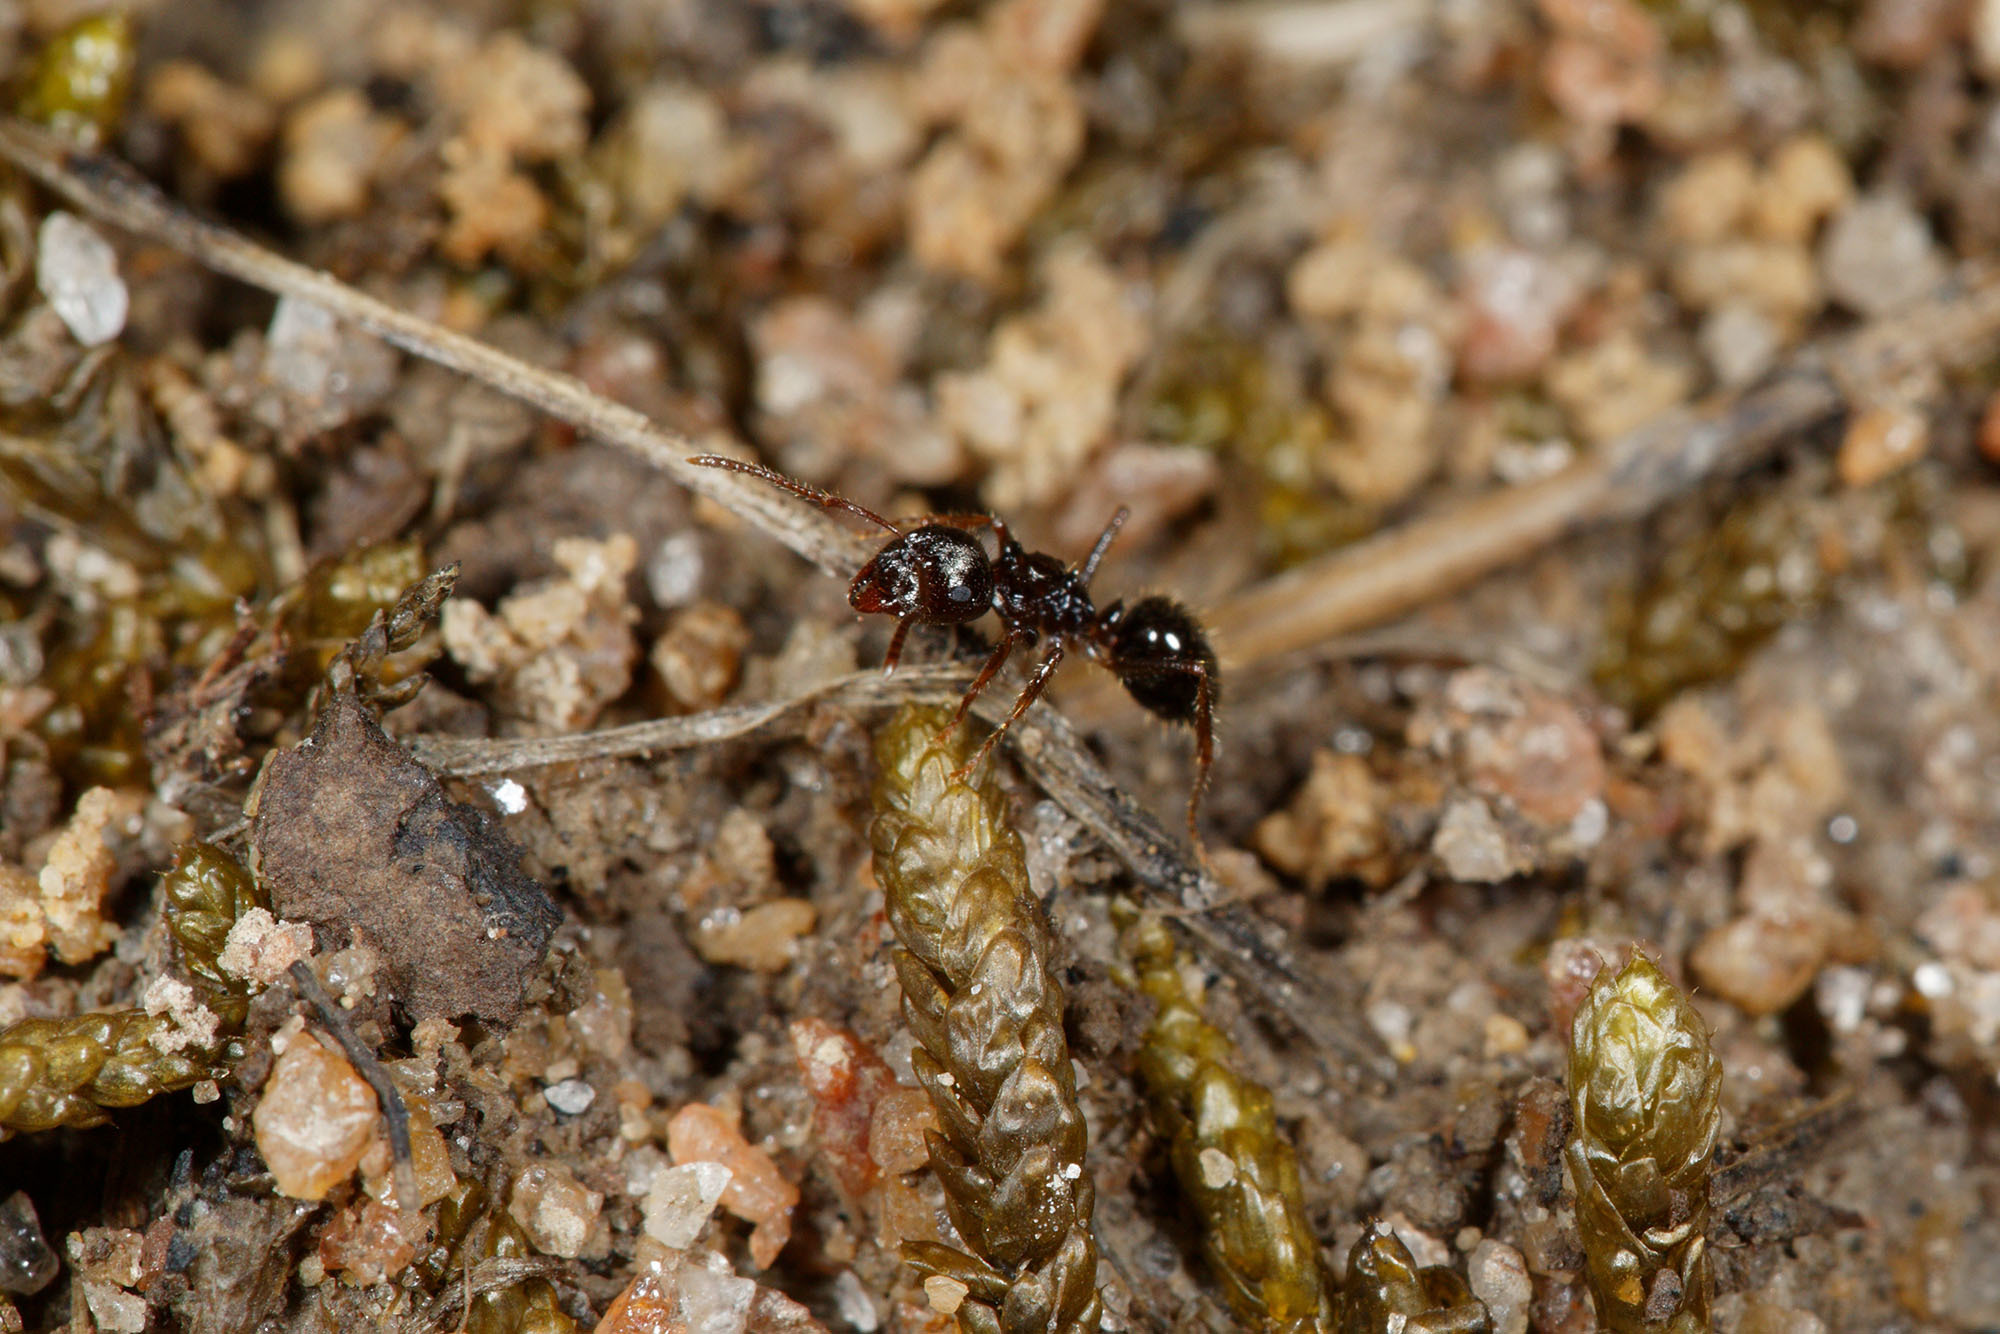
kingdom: Animalia
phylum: Arthropoda
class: Insecta
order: Hymenoptera
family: Formicidae
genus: Notoncus
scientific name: Notoncus ectatommoides
